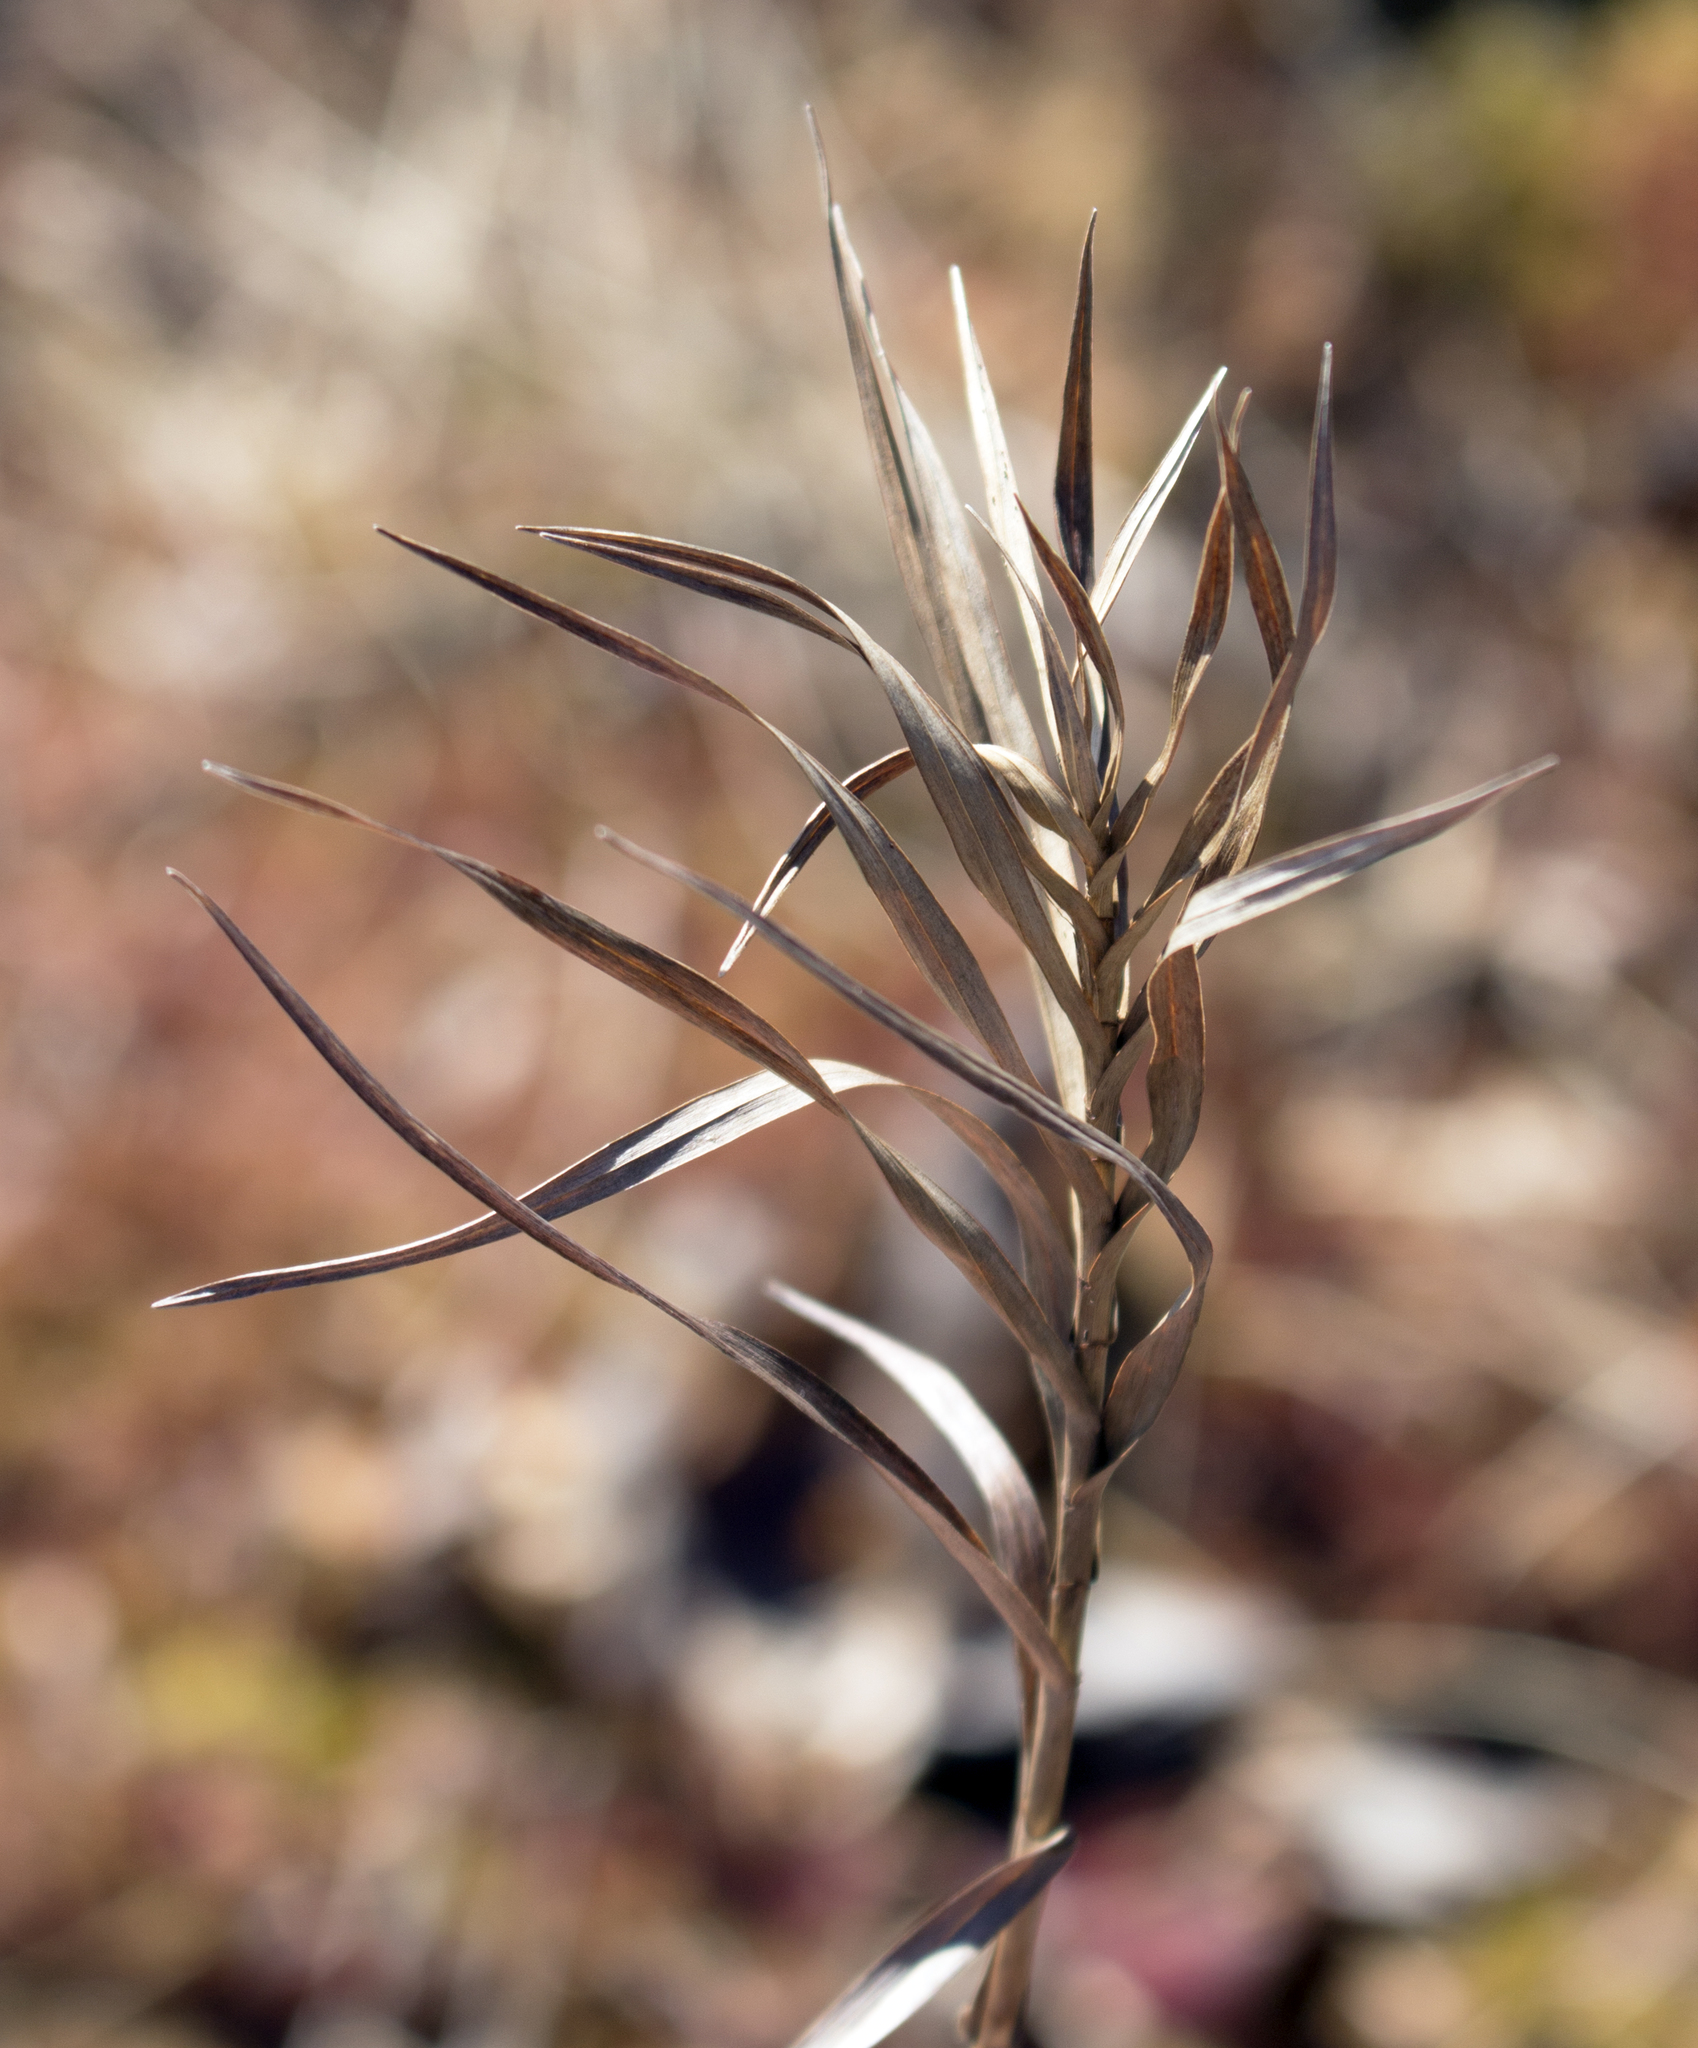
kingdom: Plantae
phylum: Tracheophyta
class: Liliopsida
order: Poales
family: Cyperaceae
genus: Dulichium
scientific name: Dulichium arundinaceum
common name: Three-way sedge
